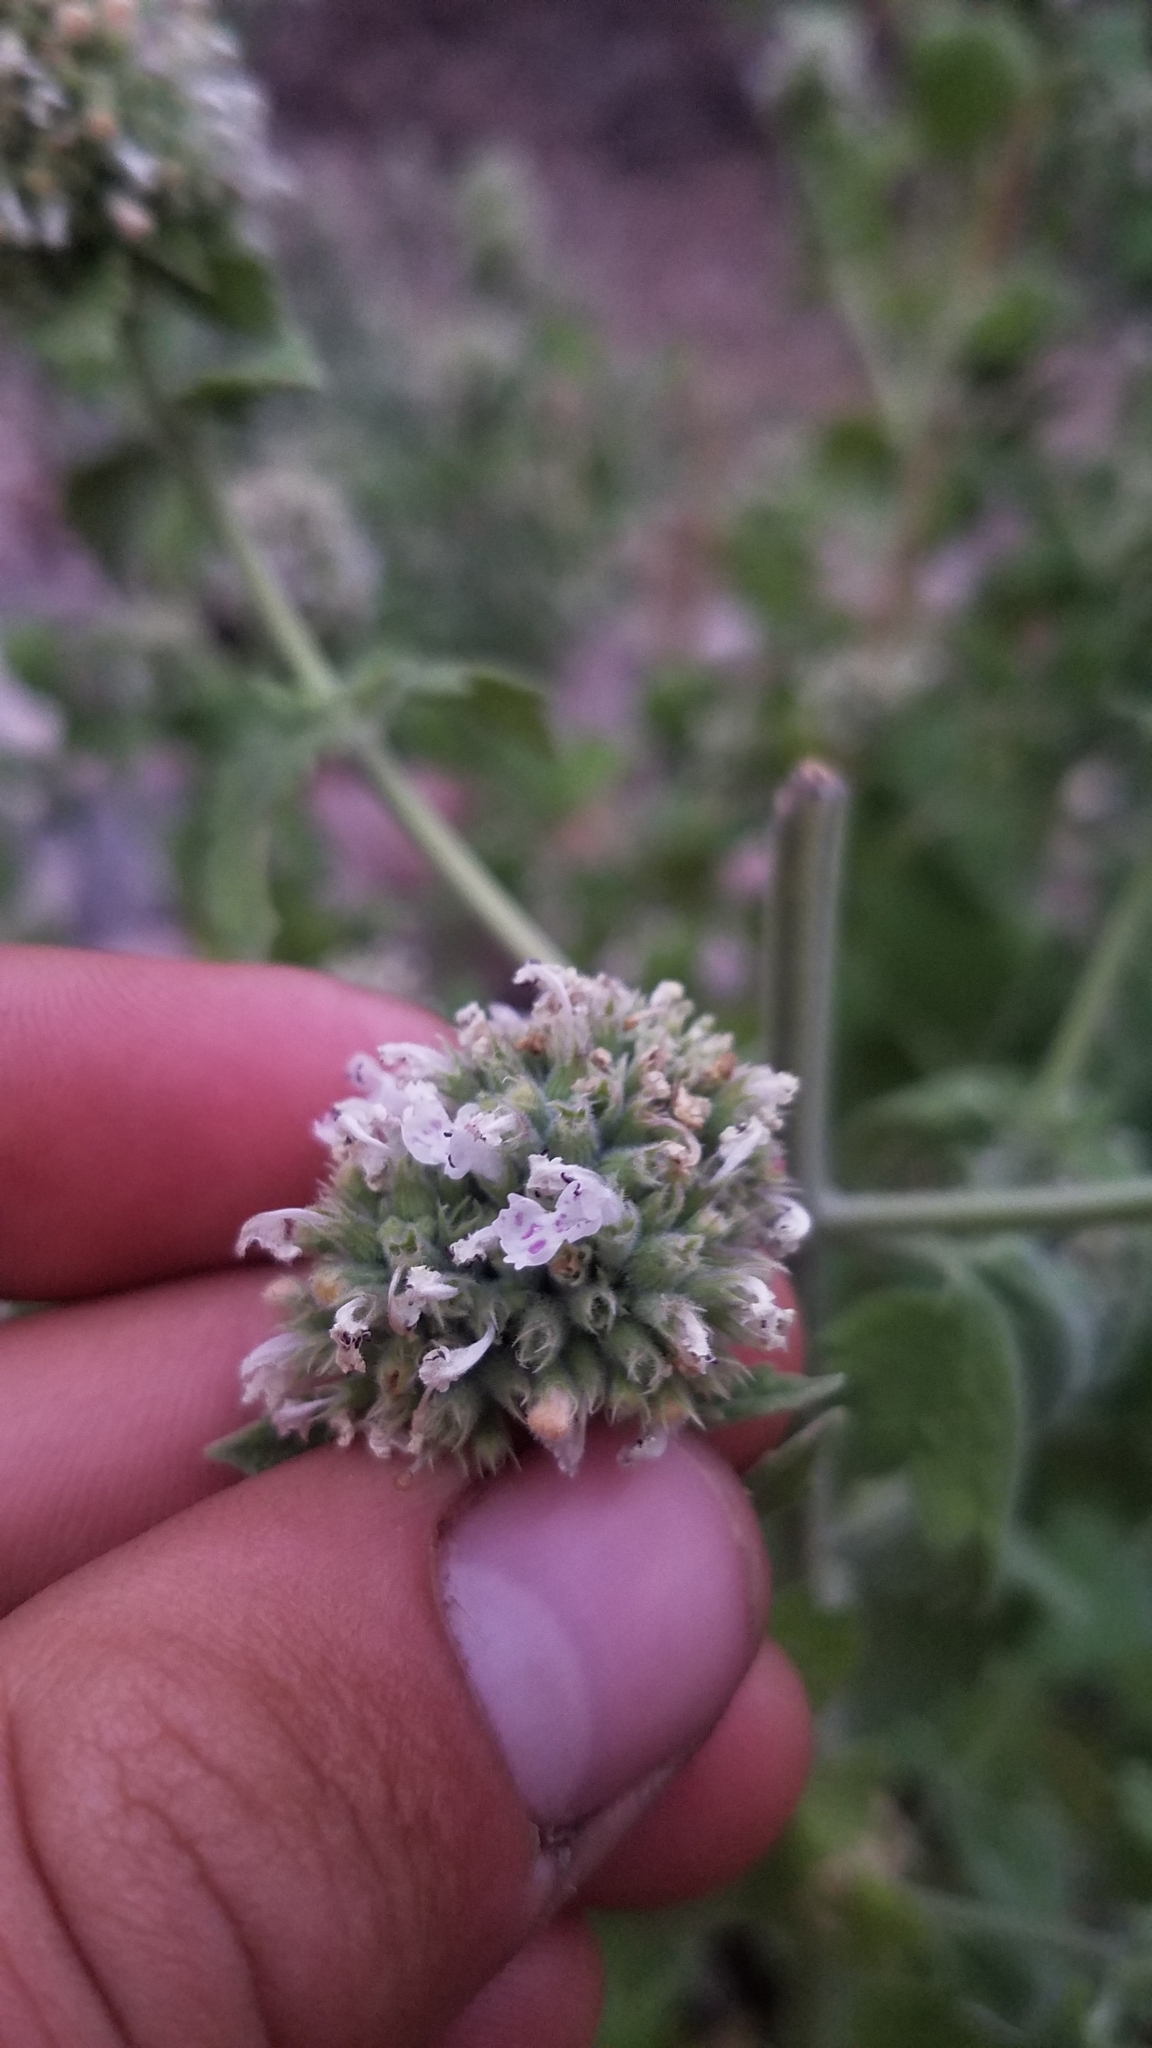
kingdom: Plantae
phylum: Tracheophyta
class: Magnoliopsida
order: Lamiales
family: Lamiaceae
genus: Nepeta
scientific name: Nepeta cataria
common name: Catnip
